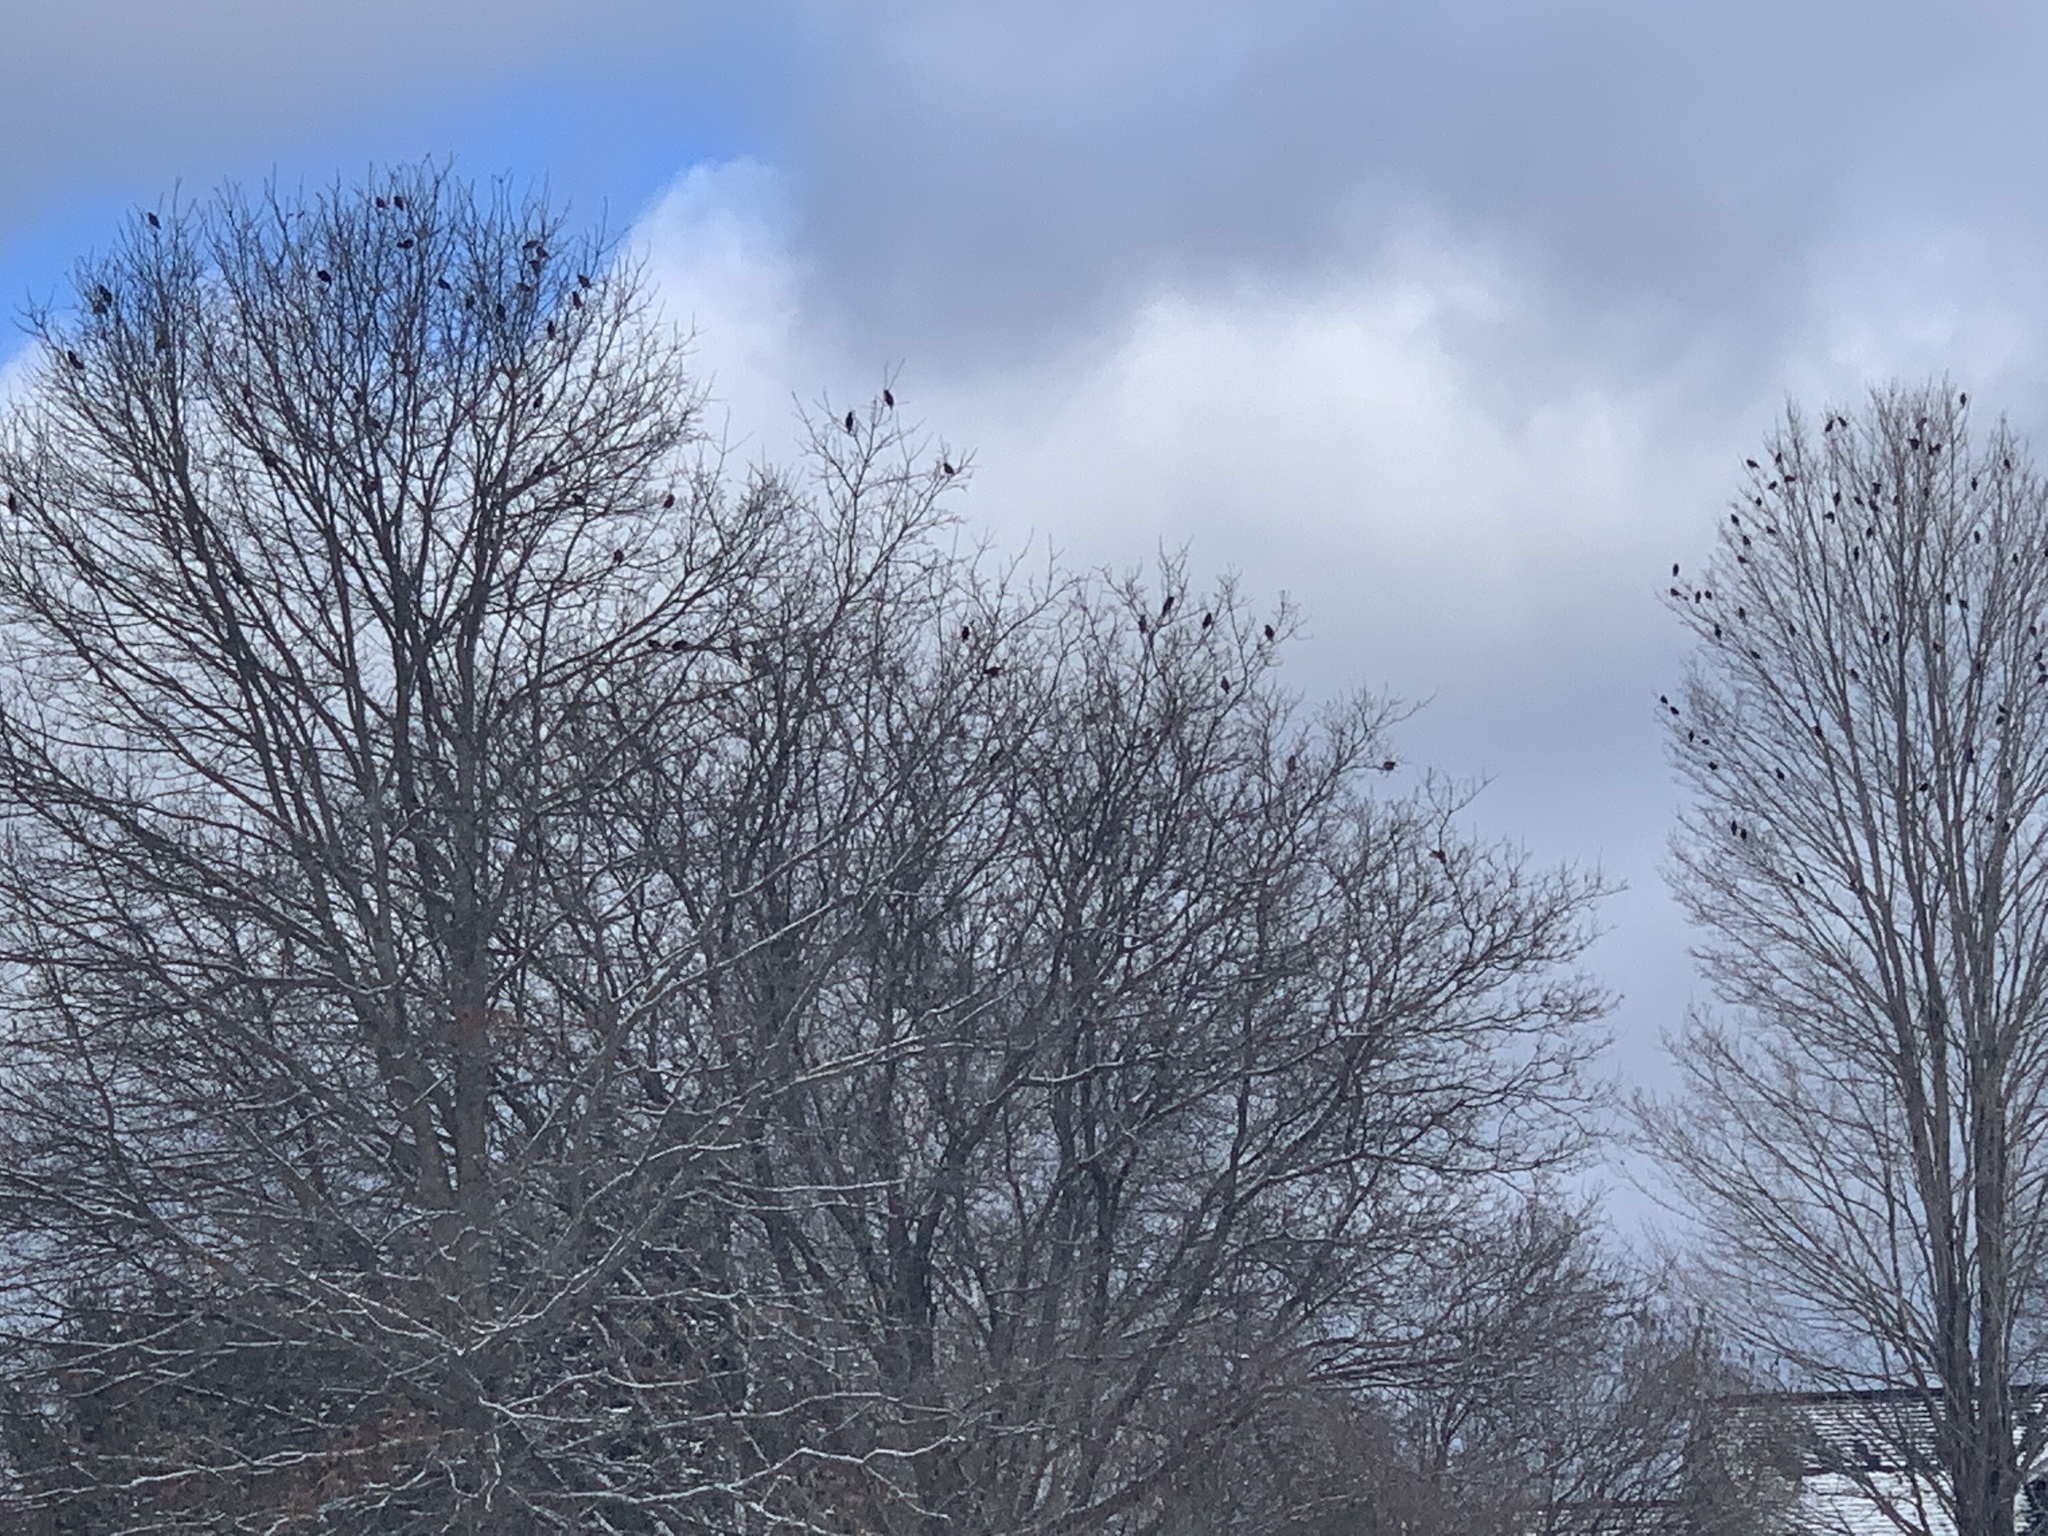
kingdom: Animalia
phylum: Chordata
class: Aves
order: Passeriformes
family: Sturnidae
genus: Sturnus
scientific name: Sturnus vulgaris
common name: Common starling
